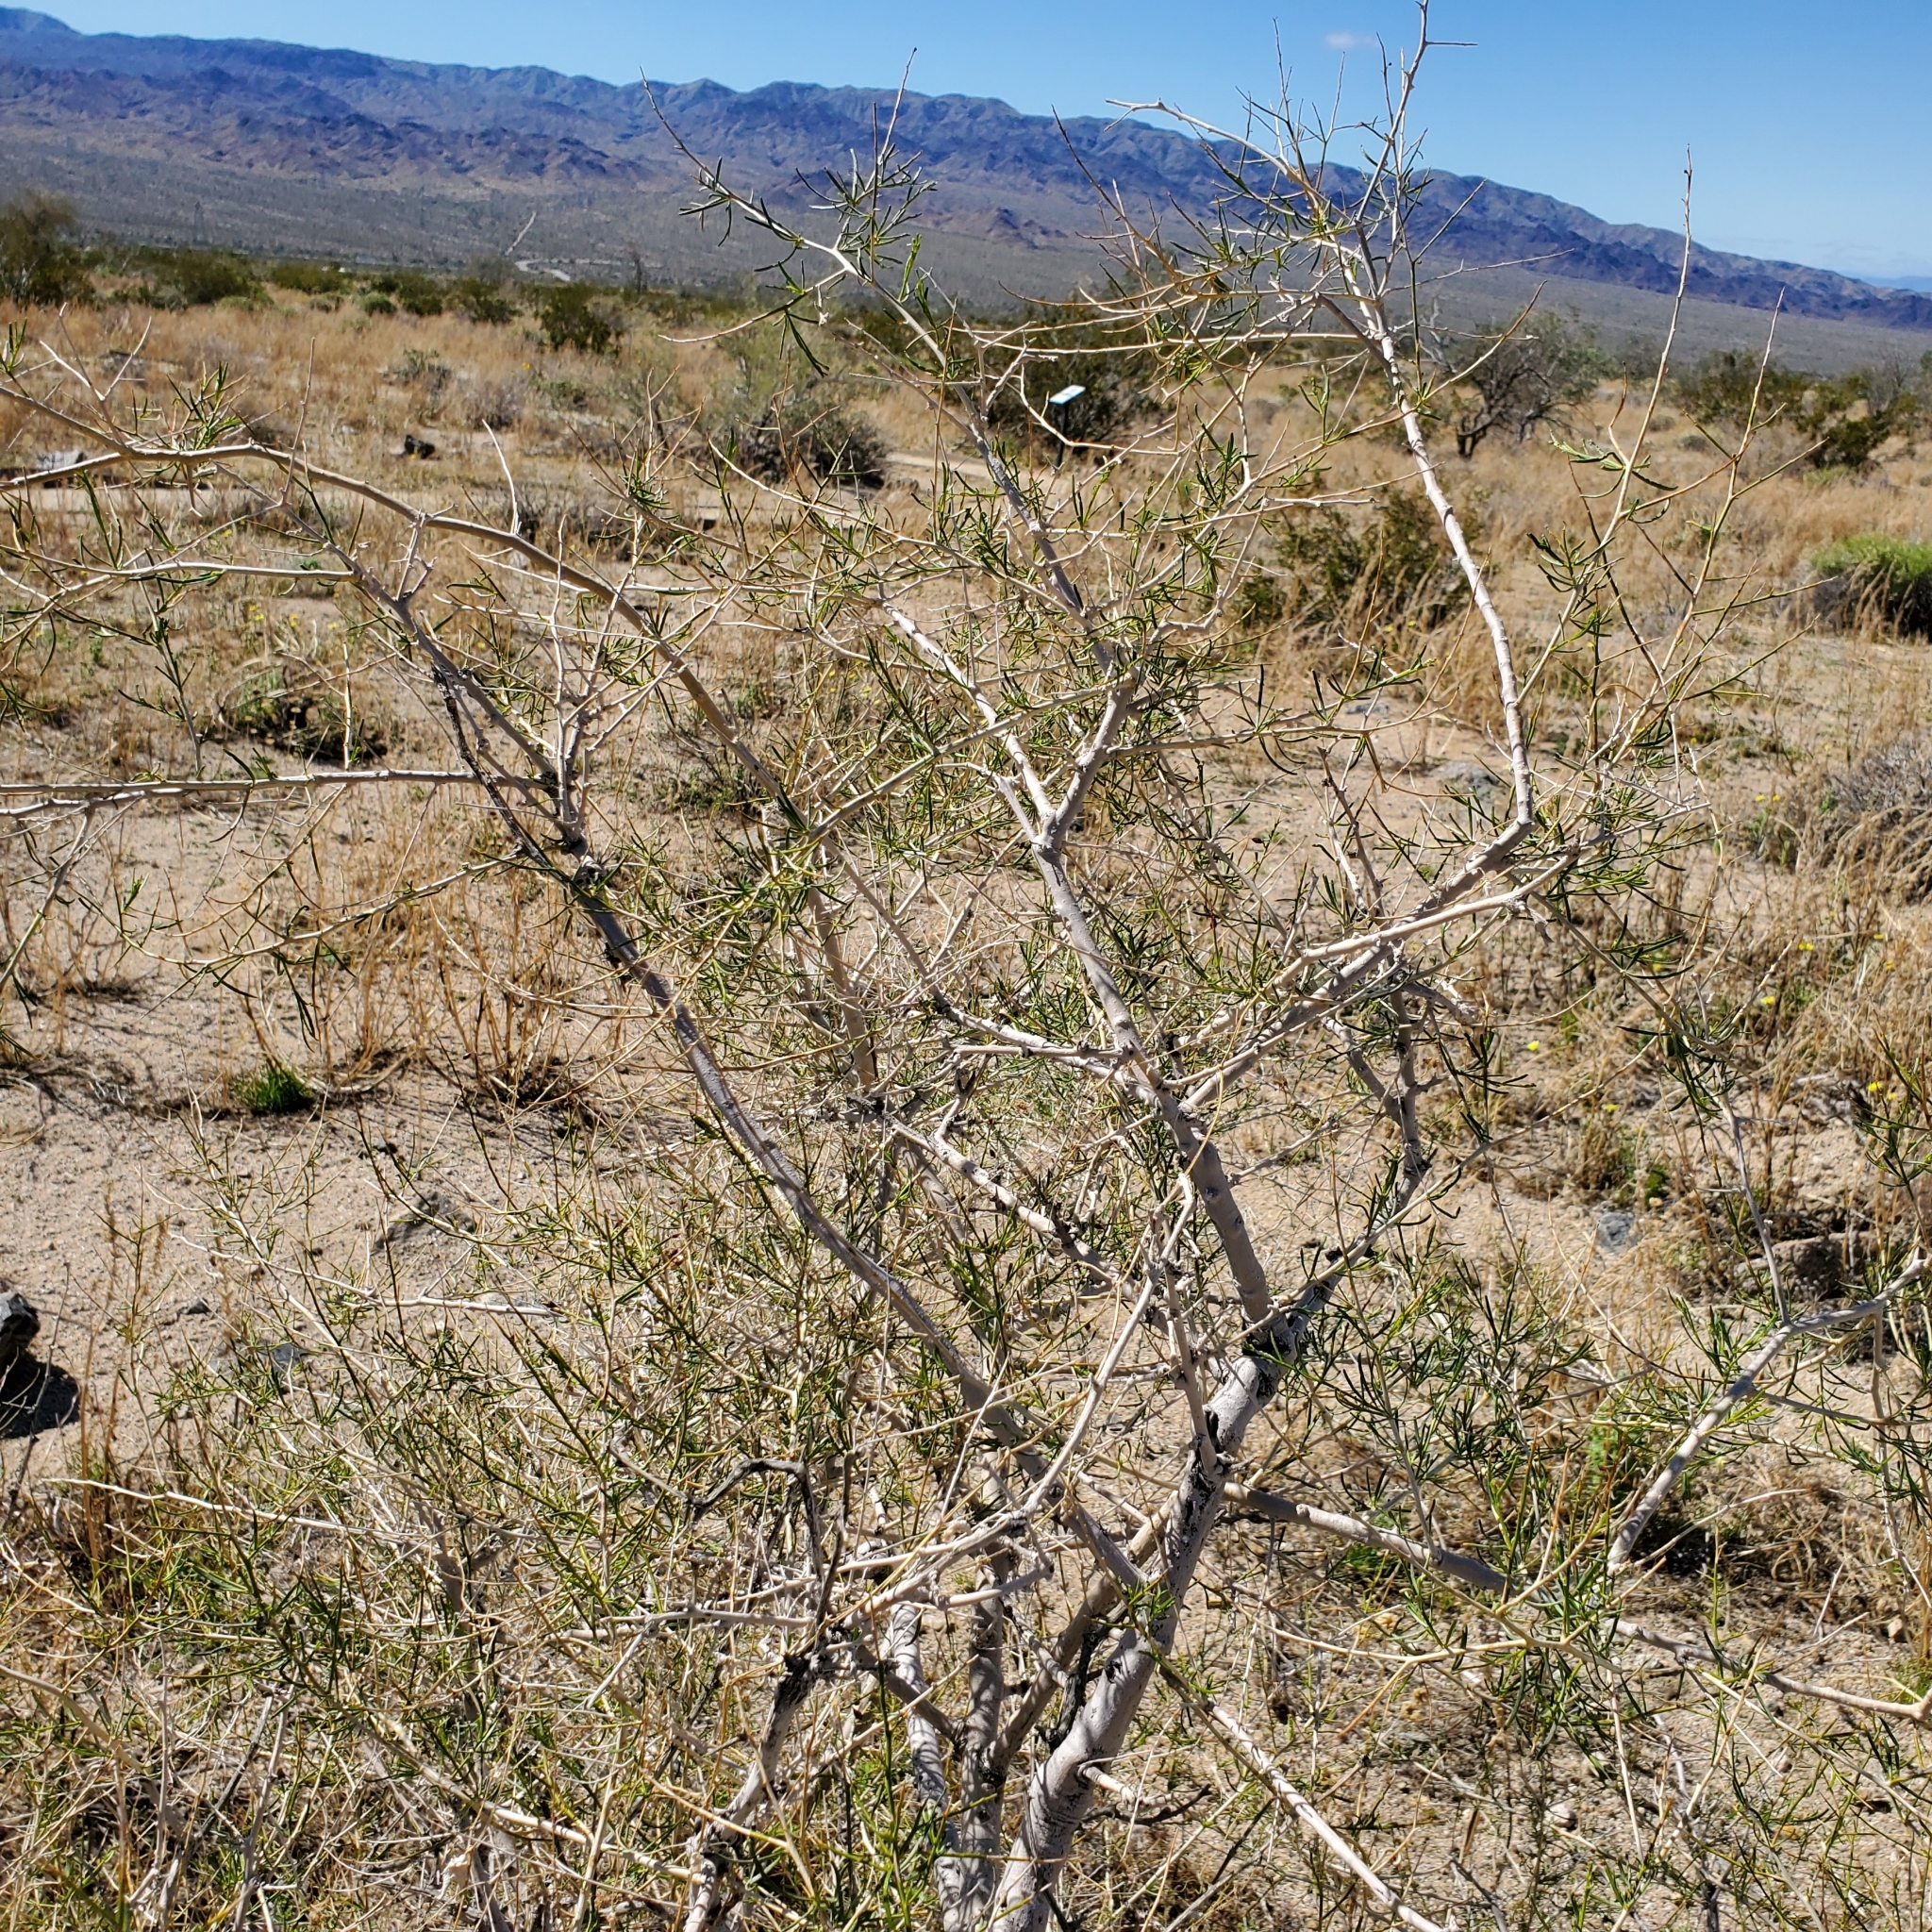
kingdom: Plantae
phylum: Tracheophyta
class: Magnoliopsida
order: Fabales
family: Fabaceae
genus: Psorothamnus
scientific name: Psorothamnus schottii
